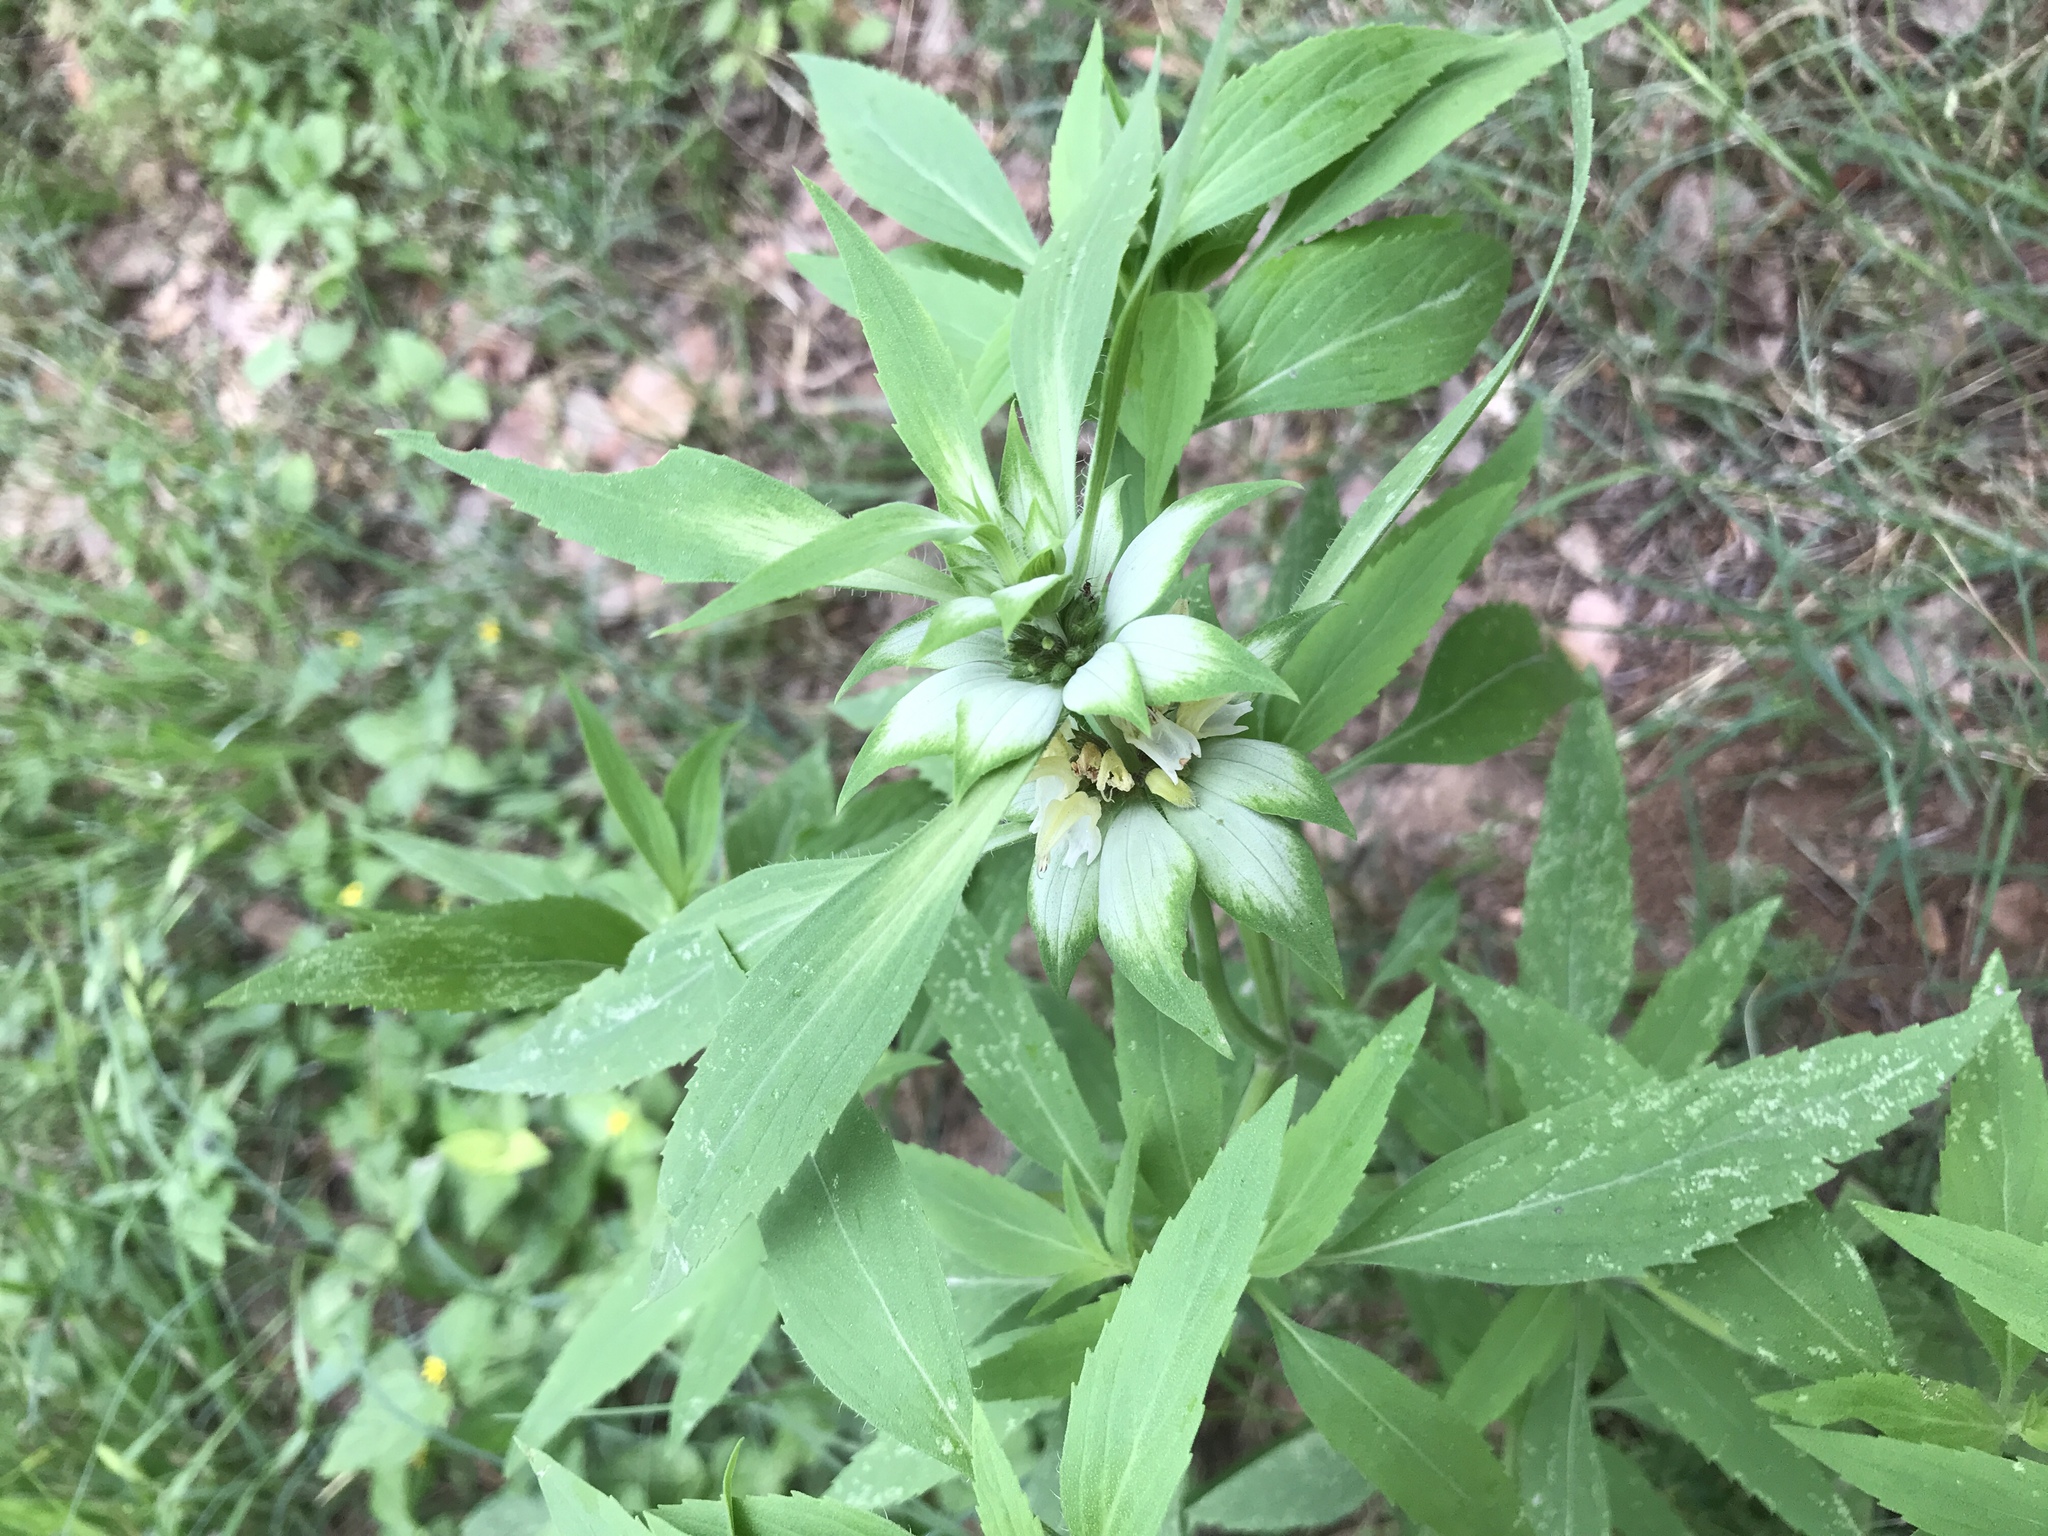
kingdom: Plantae
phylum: Tracheophyta
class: Magnoliopsida
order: Lamiales
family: Lamiaceae
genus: Monarda
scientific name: Monarda punctata
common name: Dotted monarda
